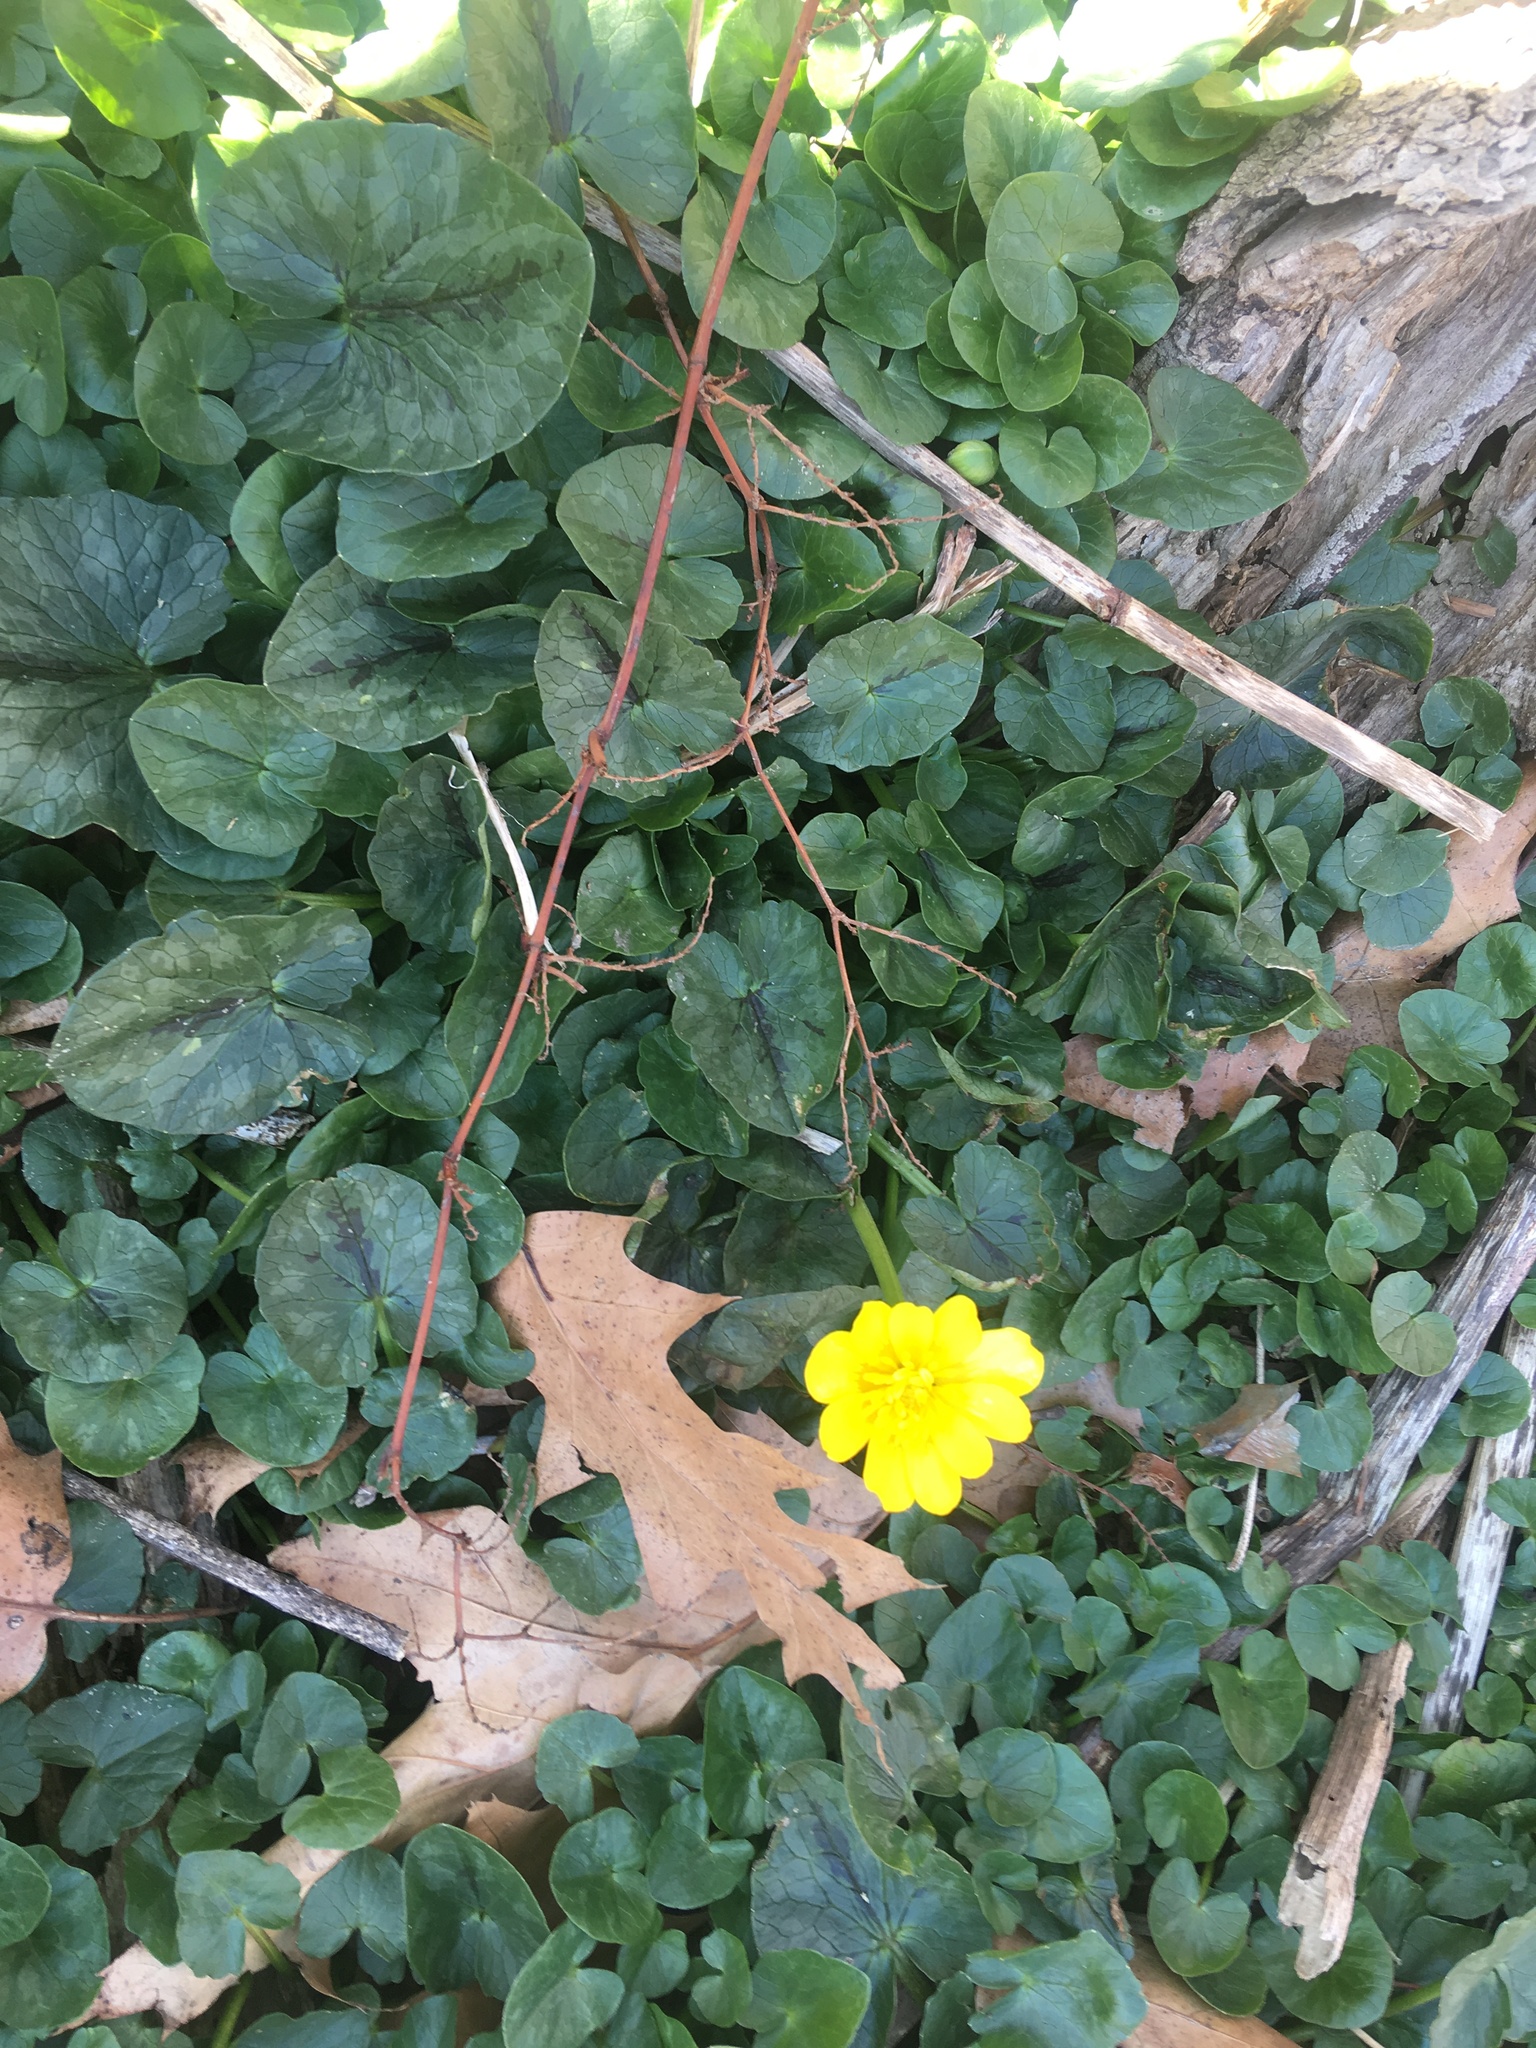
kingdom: Plantae
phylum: Tracheophyta
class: Magnoliopsida
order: Ranunculales
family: Ranunculaceae
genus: Ficaria
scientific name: Ficaria verna
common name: Lesser celandine
